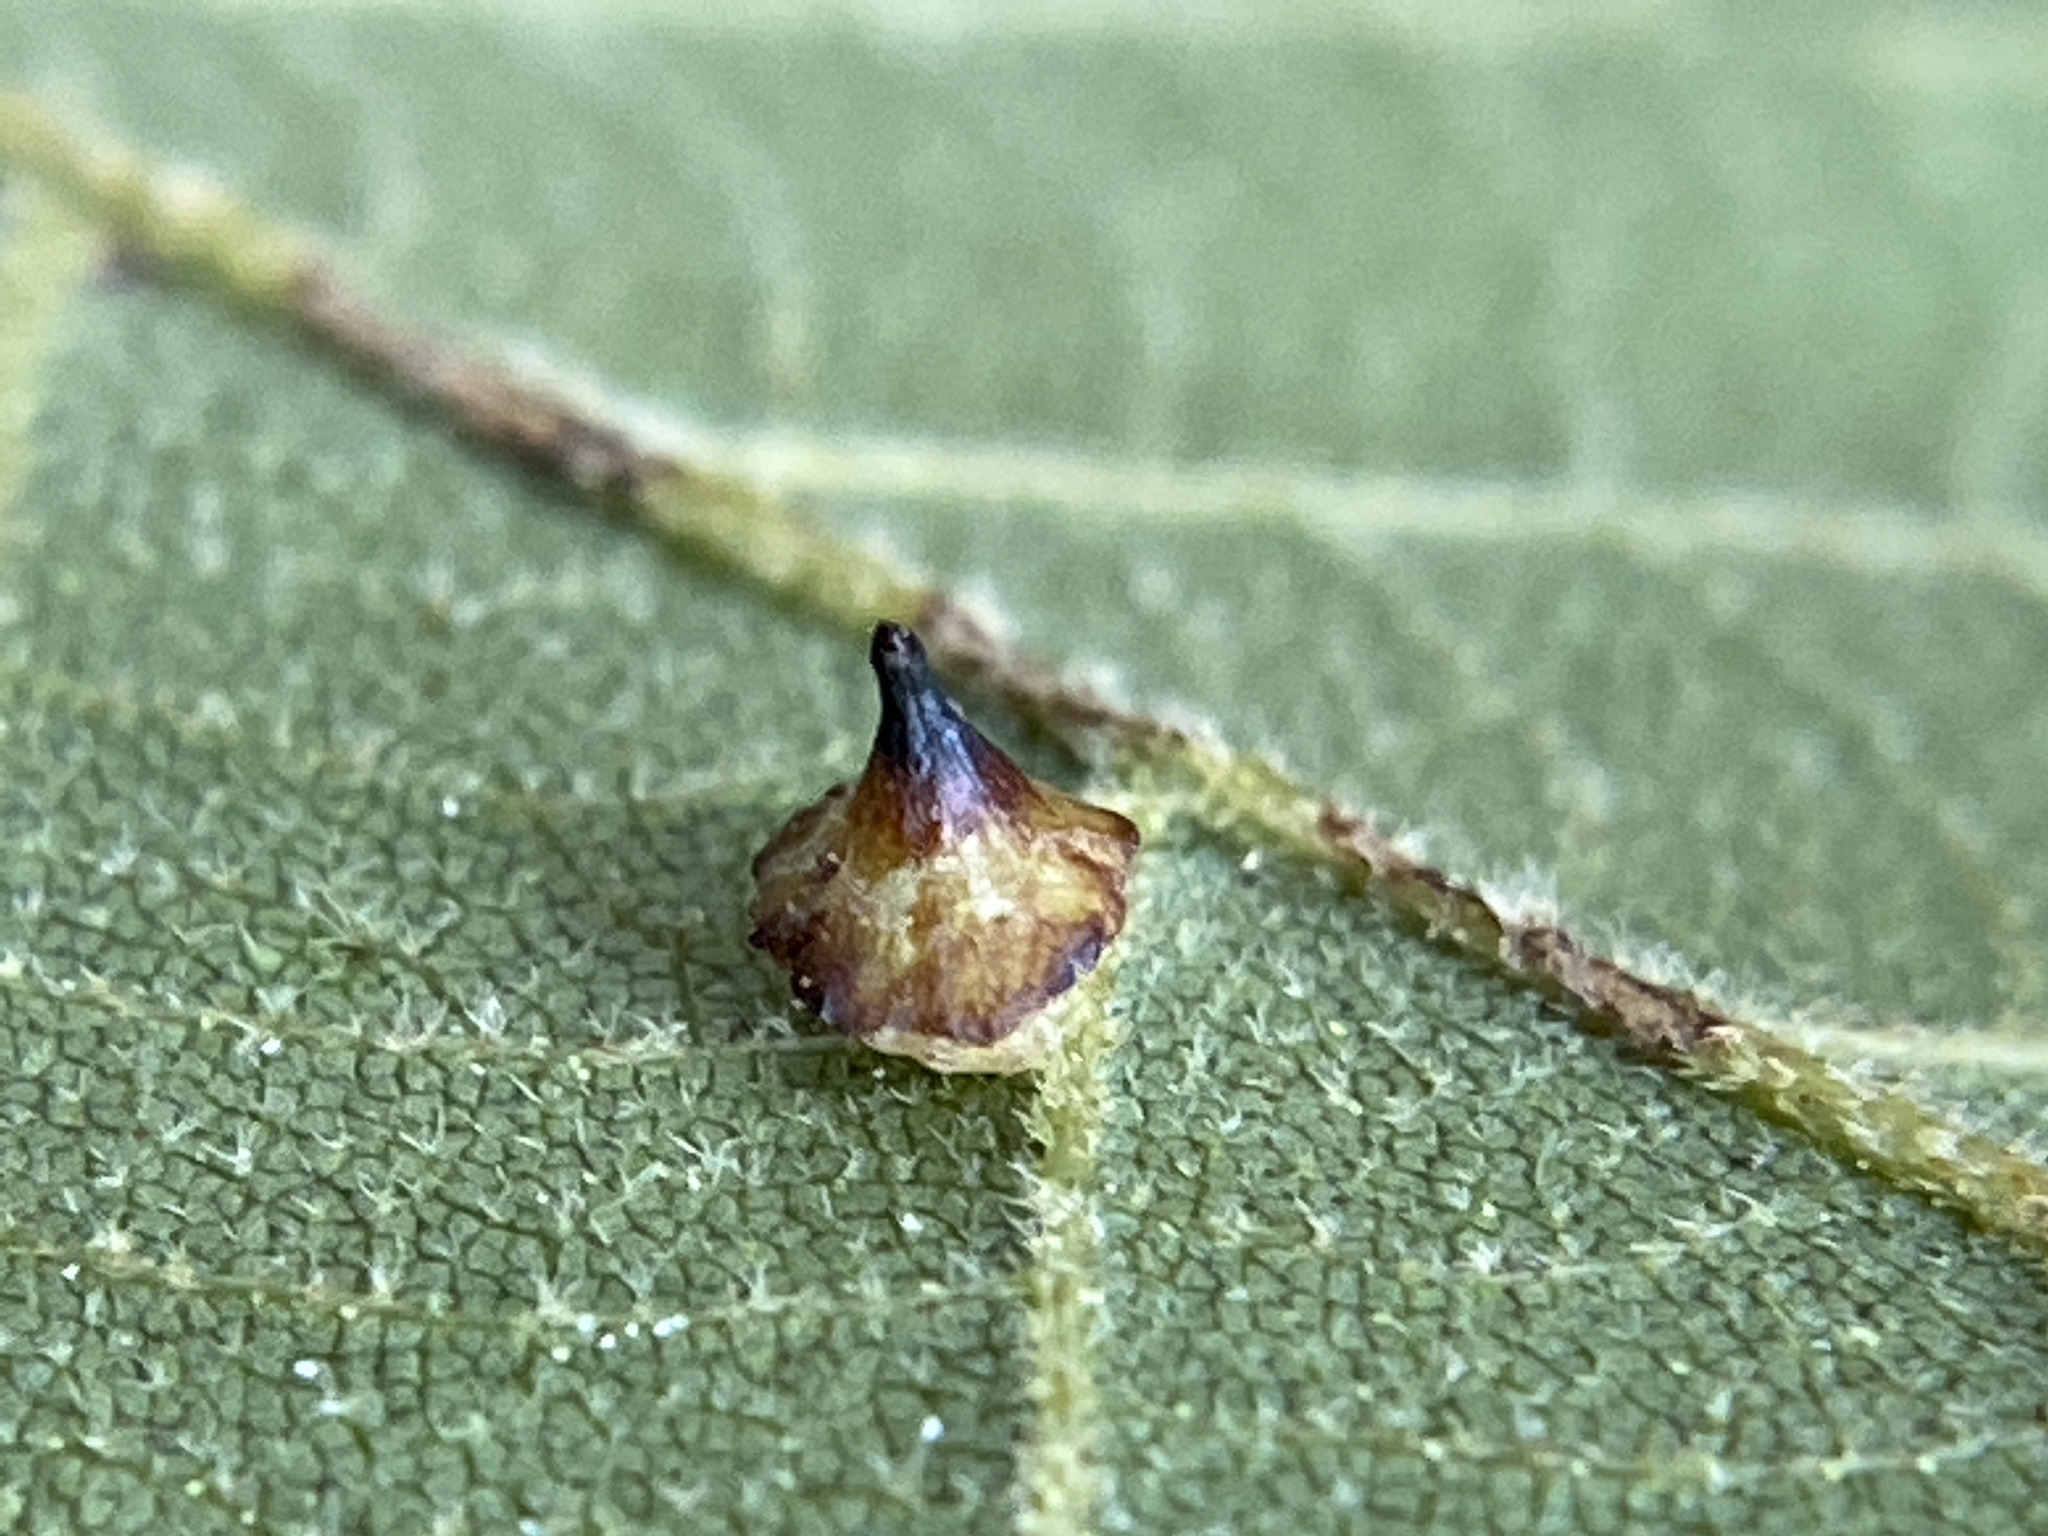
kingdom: Animalia
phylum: Arthropoda
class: Insecta
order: Diptera
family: Cecidomyiidae
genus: Caryomyia
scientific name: Caryomyia sanguinolenta
